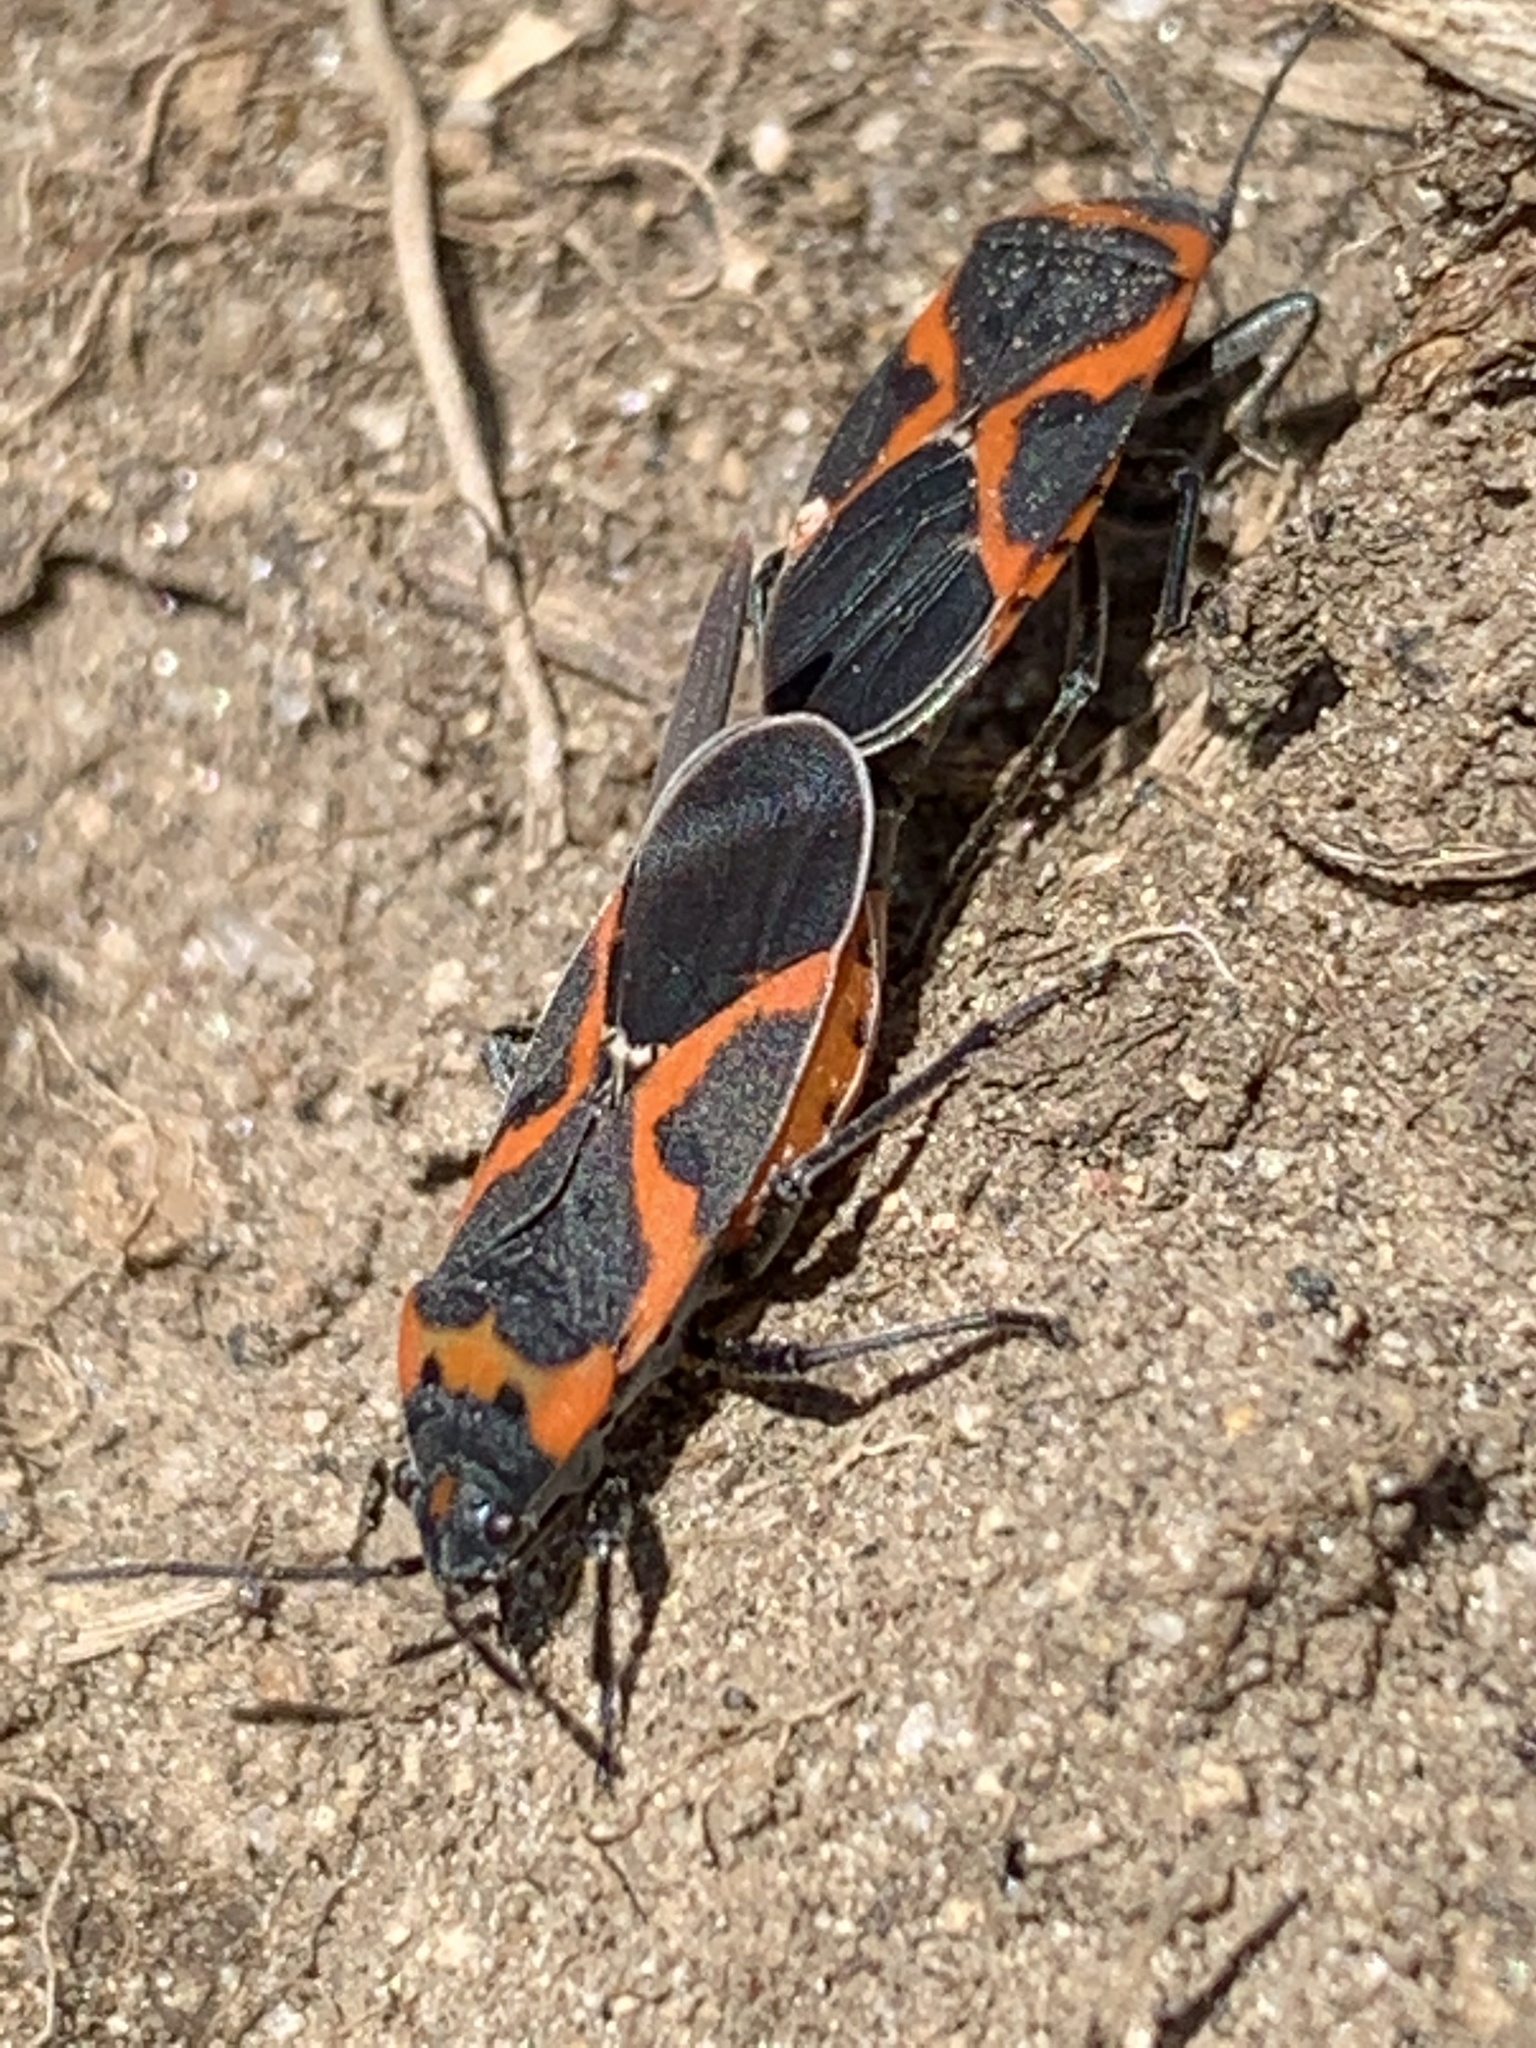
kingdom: Animalia
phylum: Arthropoda
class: Insecta
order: Hemiptera
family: Lygaeidae
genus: Lygaeus
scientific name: Lygaeus kalmii
